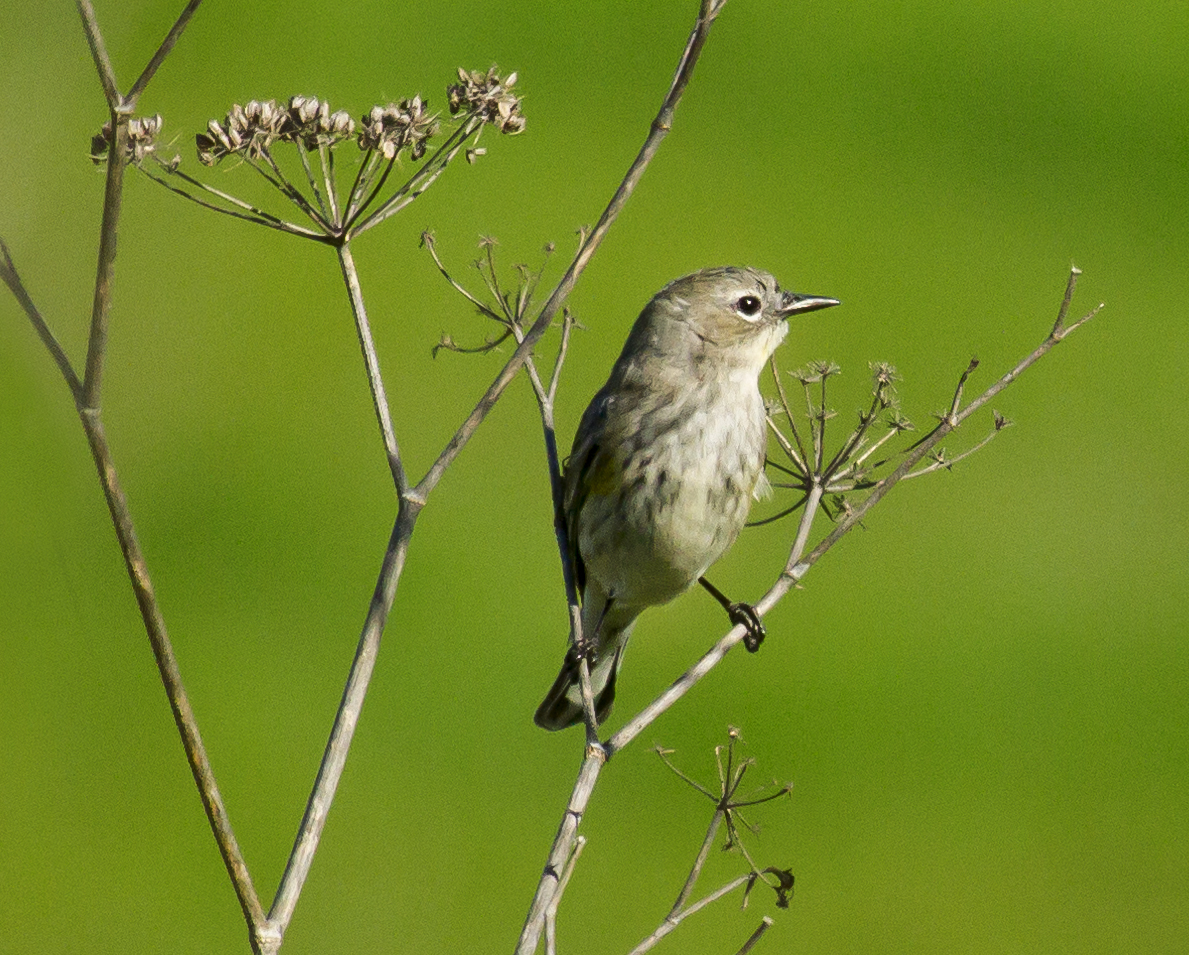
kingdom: Animalia
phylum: Chordata
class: Aves
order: Passeriformes
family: Parulidae
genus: Setophaga
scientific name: Setophaga coronata
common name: Myrtle warbler
